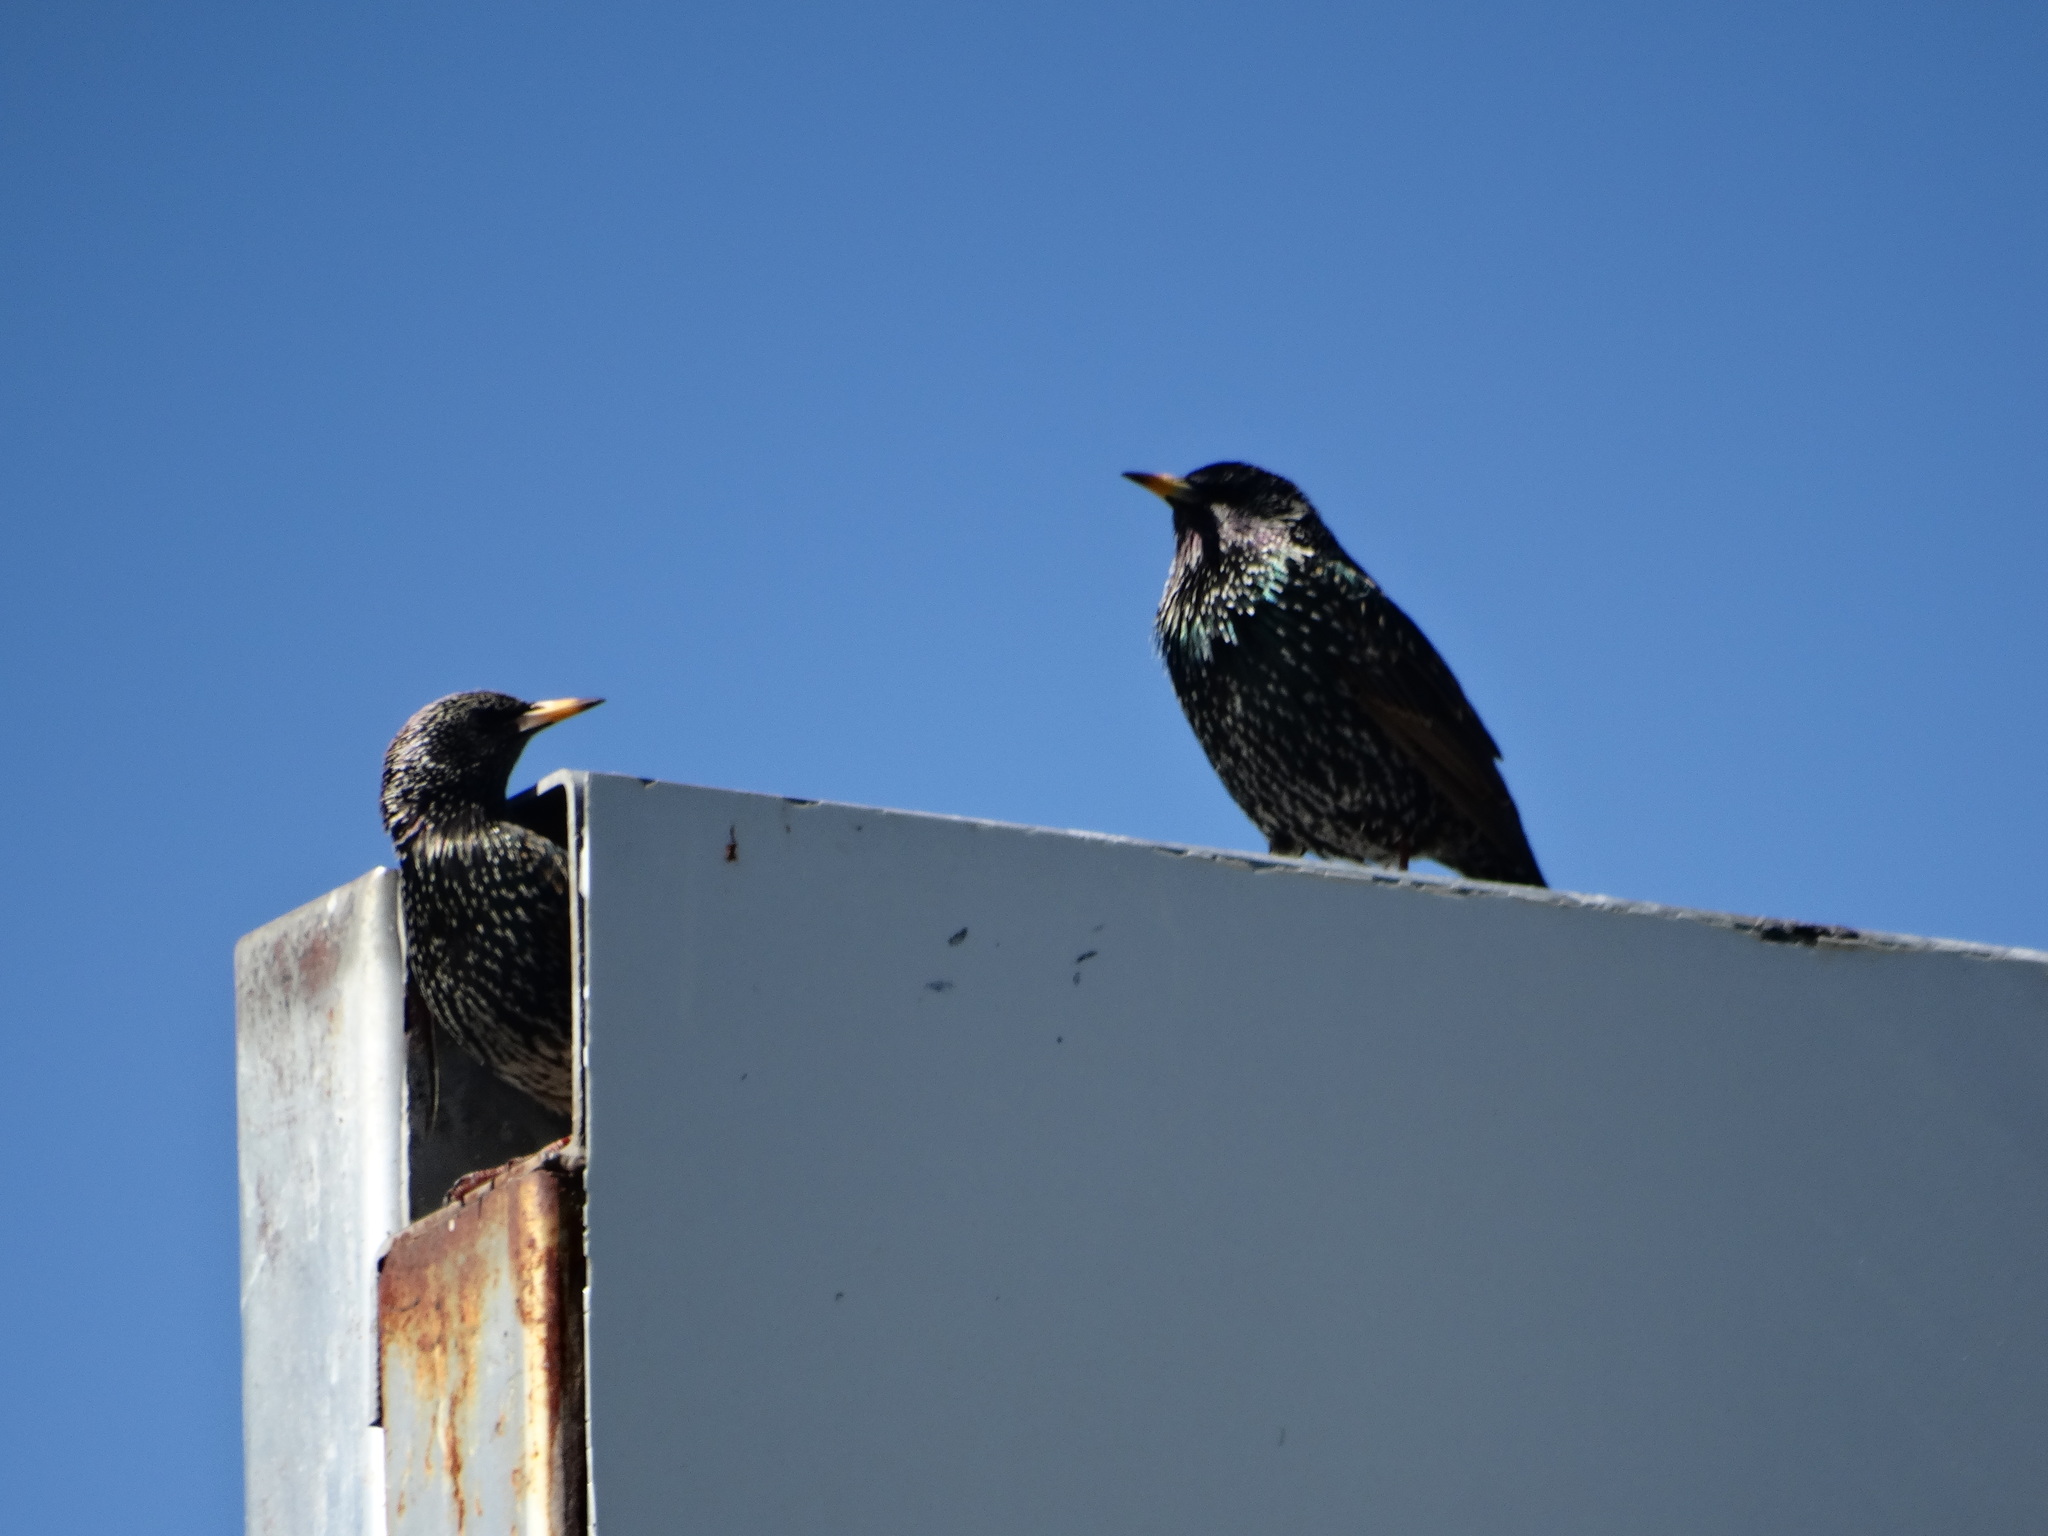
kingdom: Animalia
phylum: Chordata
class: Aves
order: Passeriformes
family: Sturnidae
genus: Sturnus
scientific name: Sturnus vulgaris
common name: Common starling
